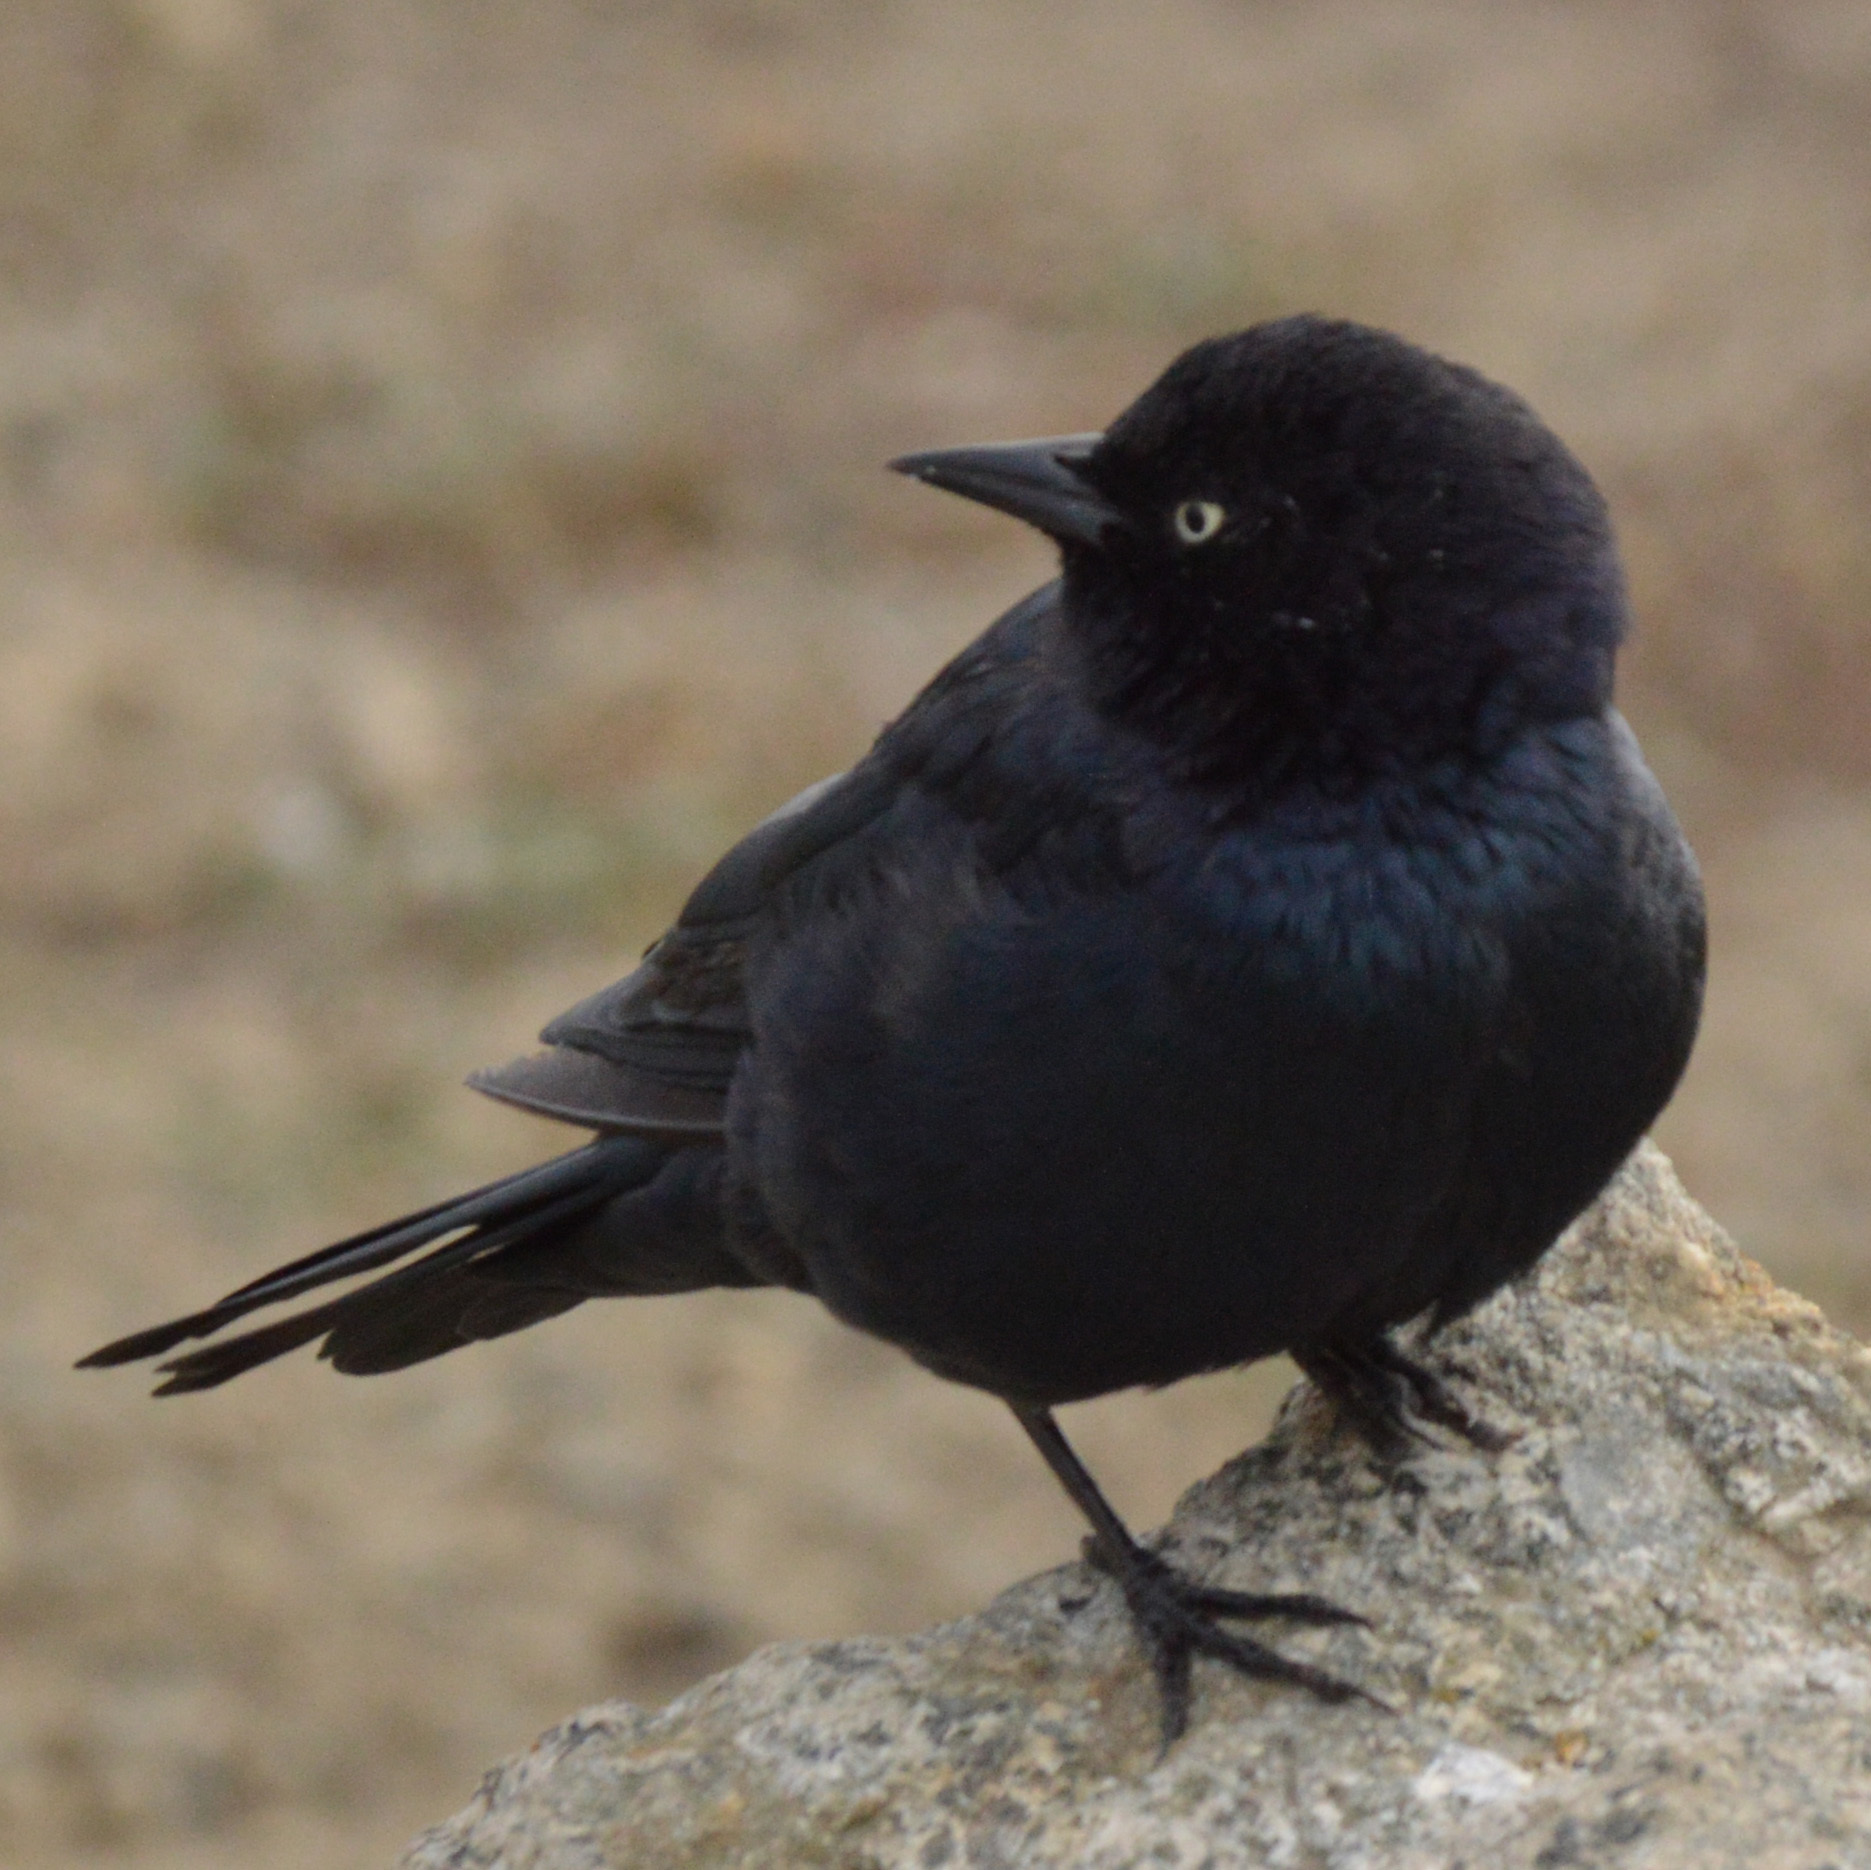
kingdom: Animalia
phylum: Chordata
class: Aves
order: Passeriformes
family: Icteridae
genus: Euphagus
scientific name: Euphagus cyanocephalus
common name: Brewer's blackbird
